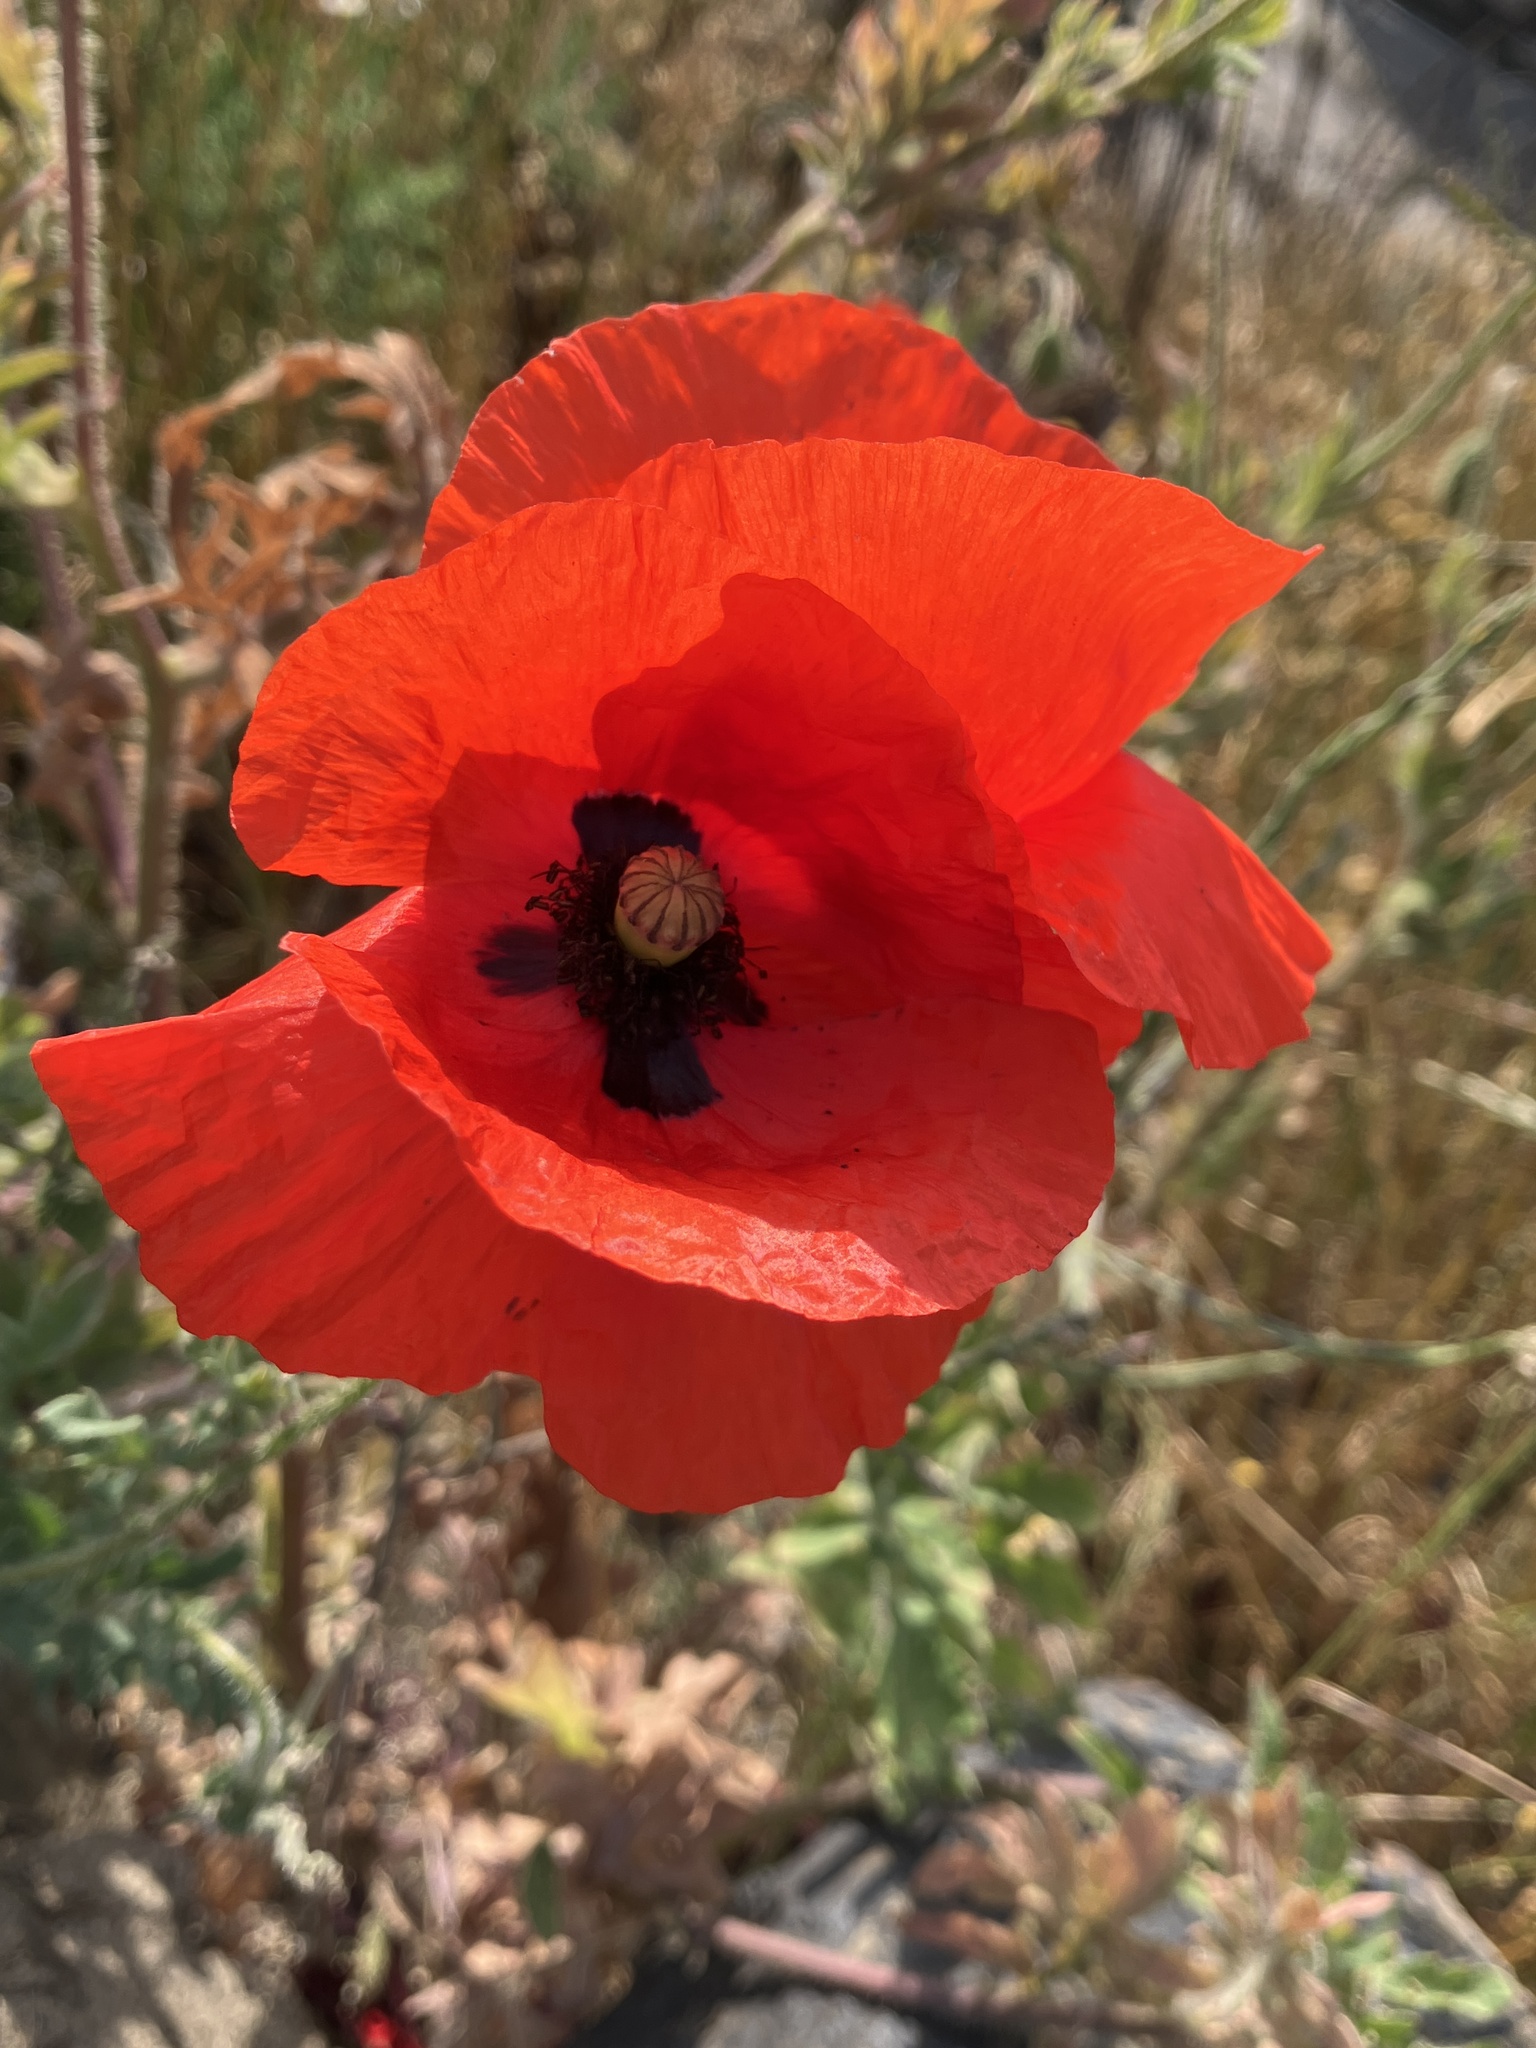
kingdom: Plantae
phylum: Tracheophyta
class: Magnoliopsida
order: Ranunculales
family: Papaveraceae
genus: Papaver
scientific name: Papaver rhoeas
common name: Corn poppy
